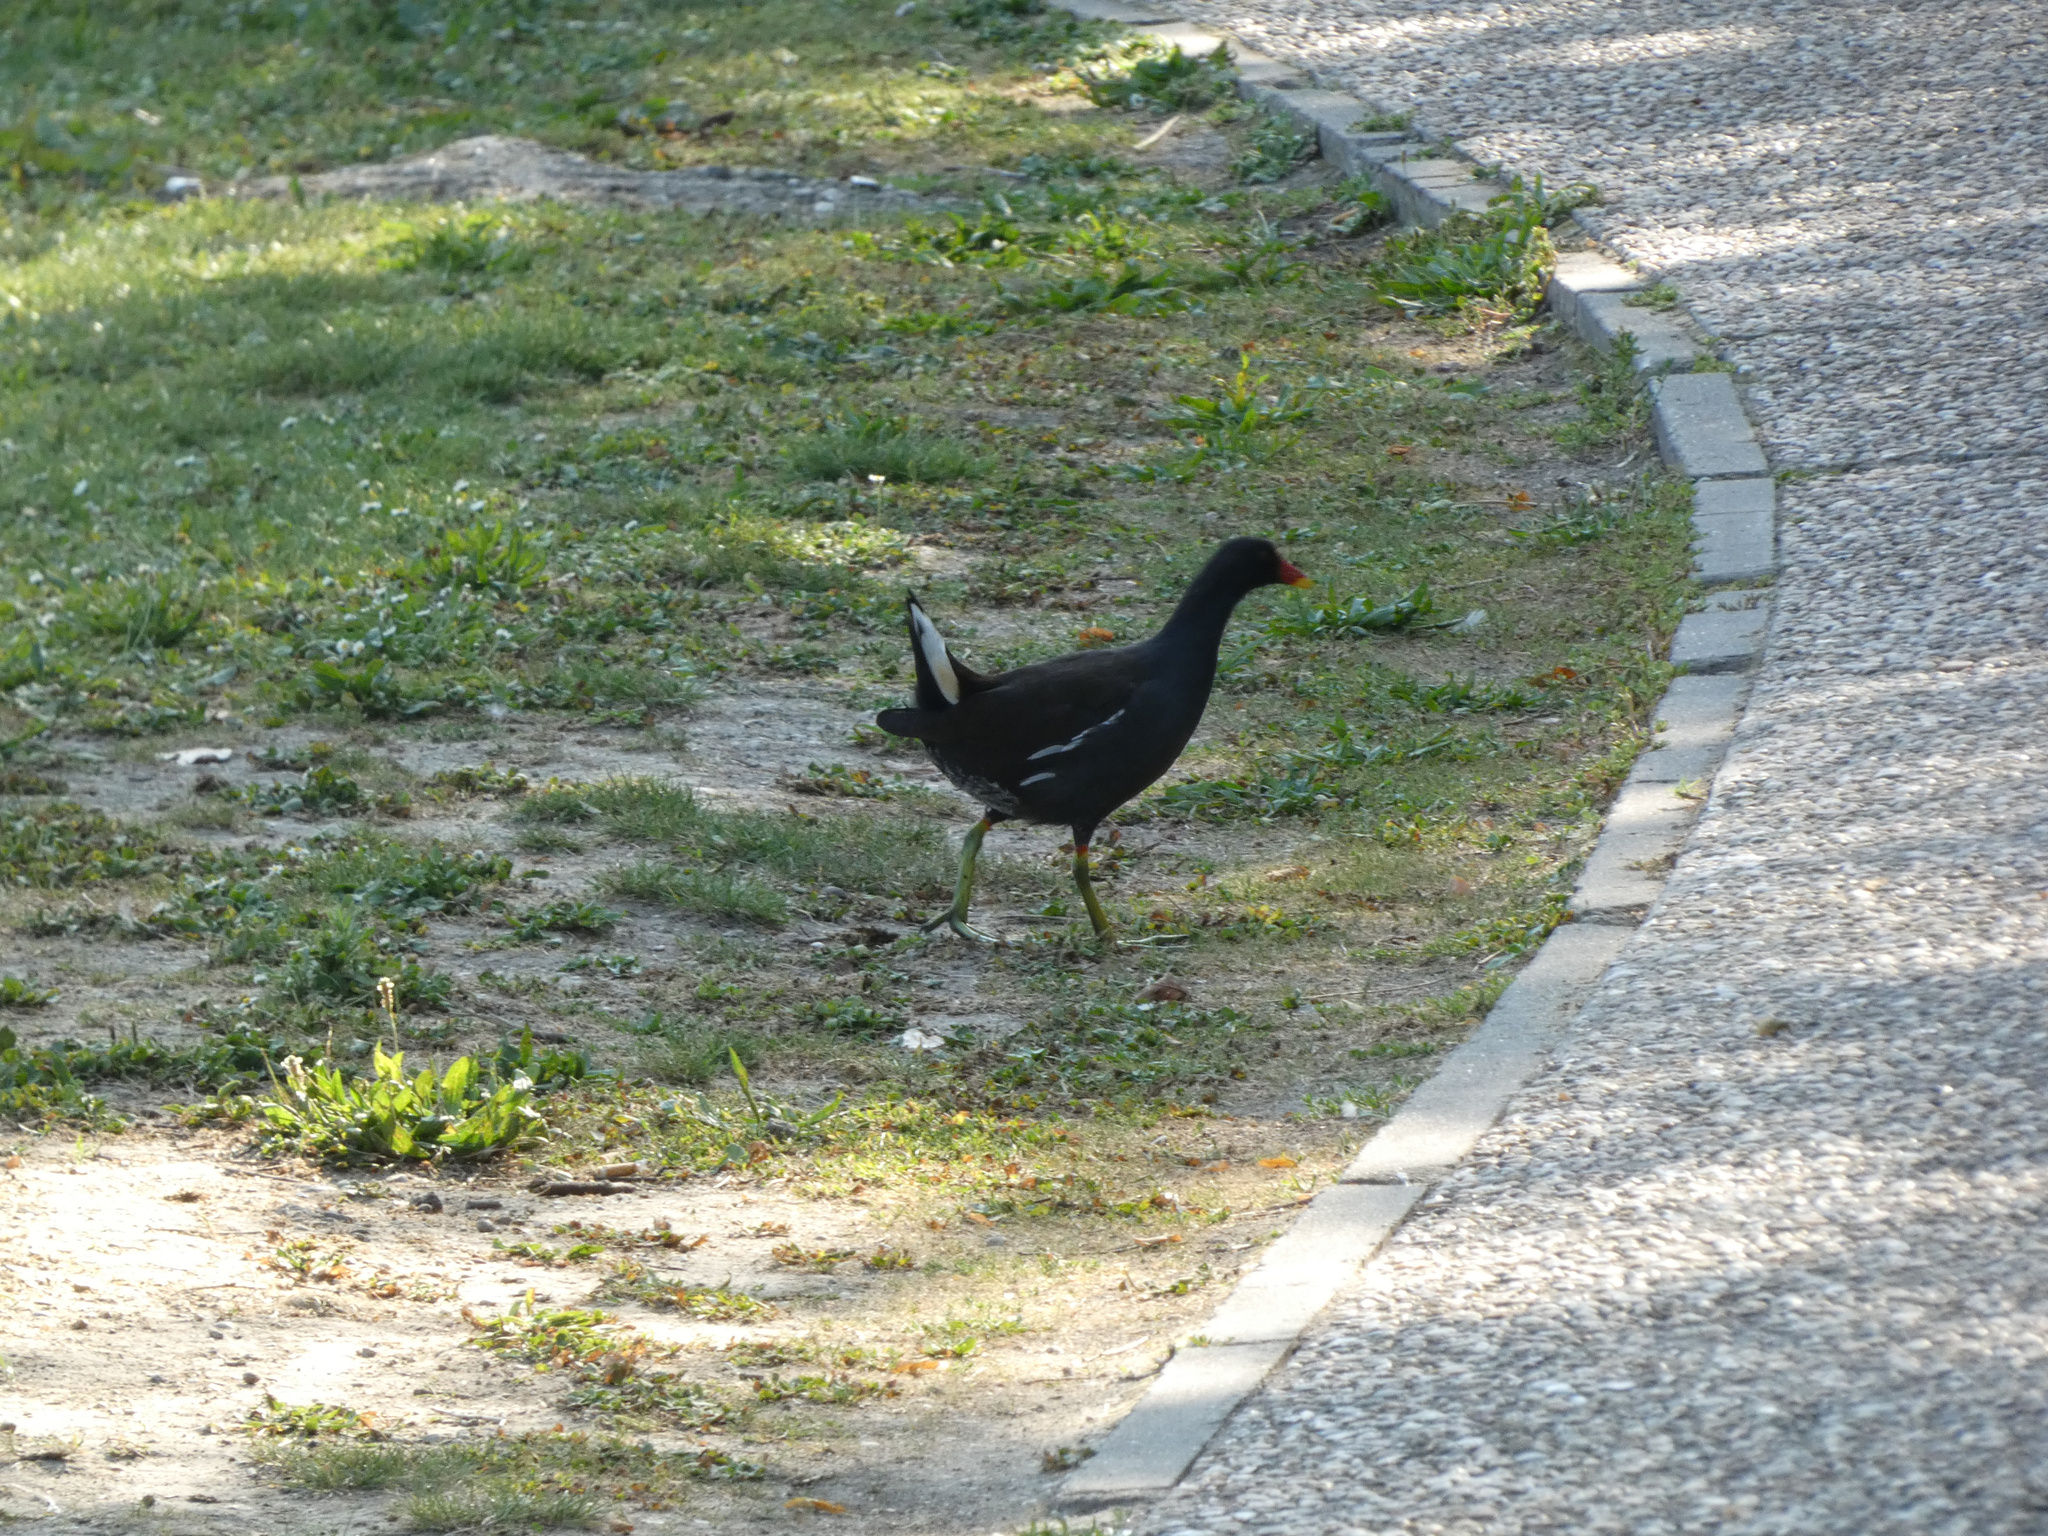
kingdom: Animalia
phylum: Chordata
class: Aves
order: Gruiformes
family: Rallidae
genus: Gallinula
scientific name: Gallinula chloropus
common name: Common moorhen
